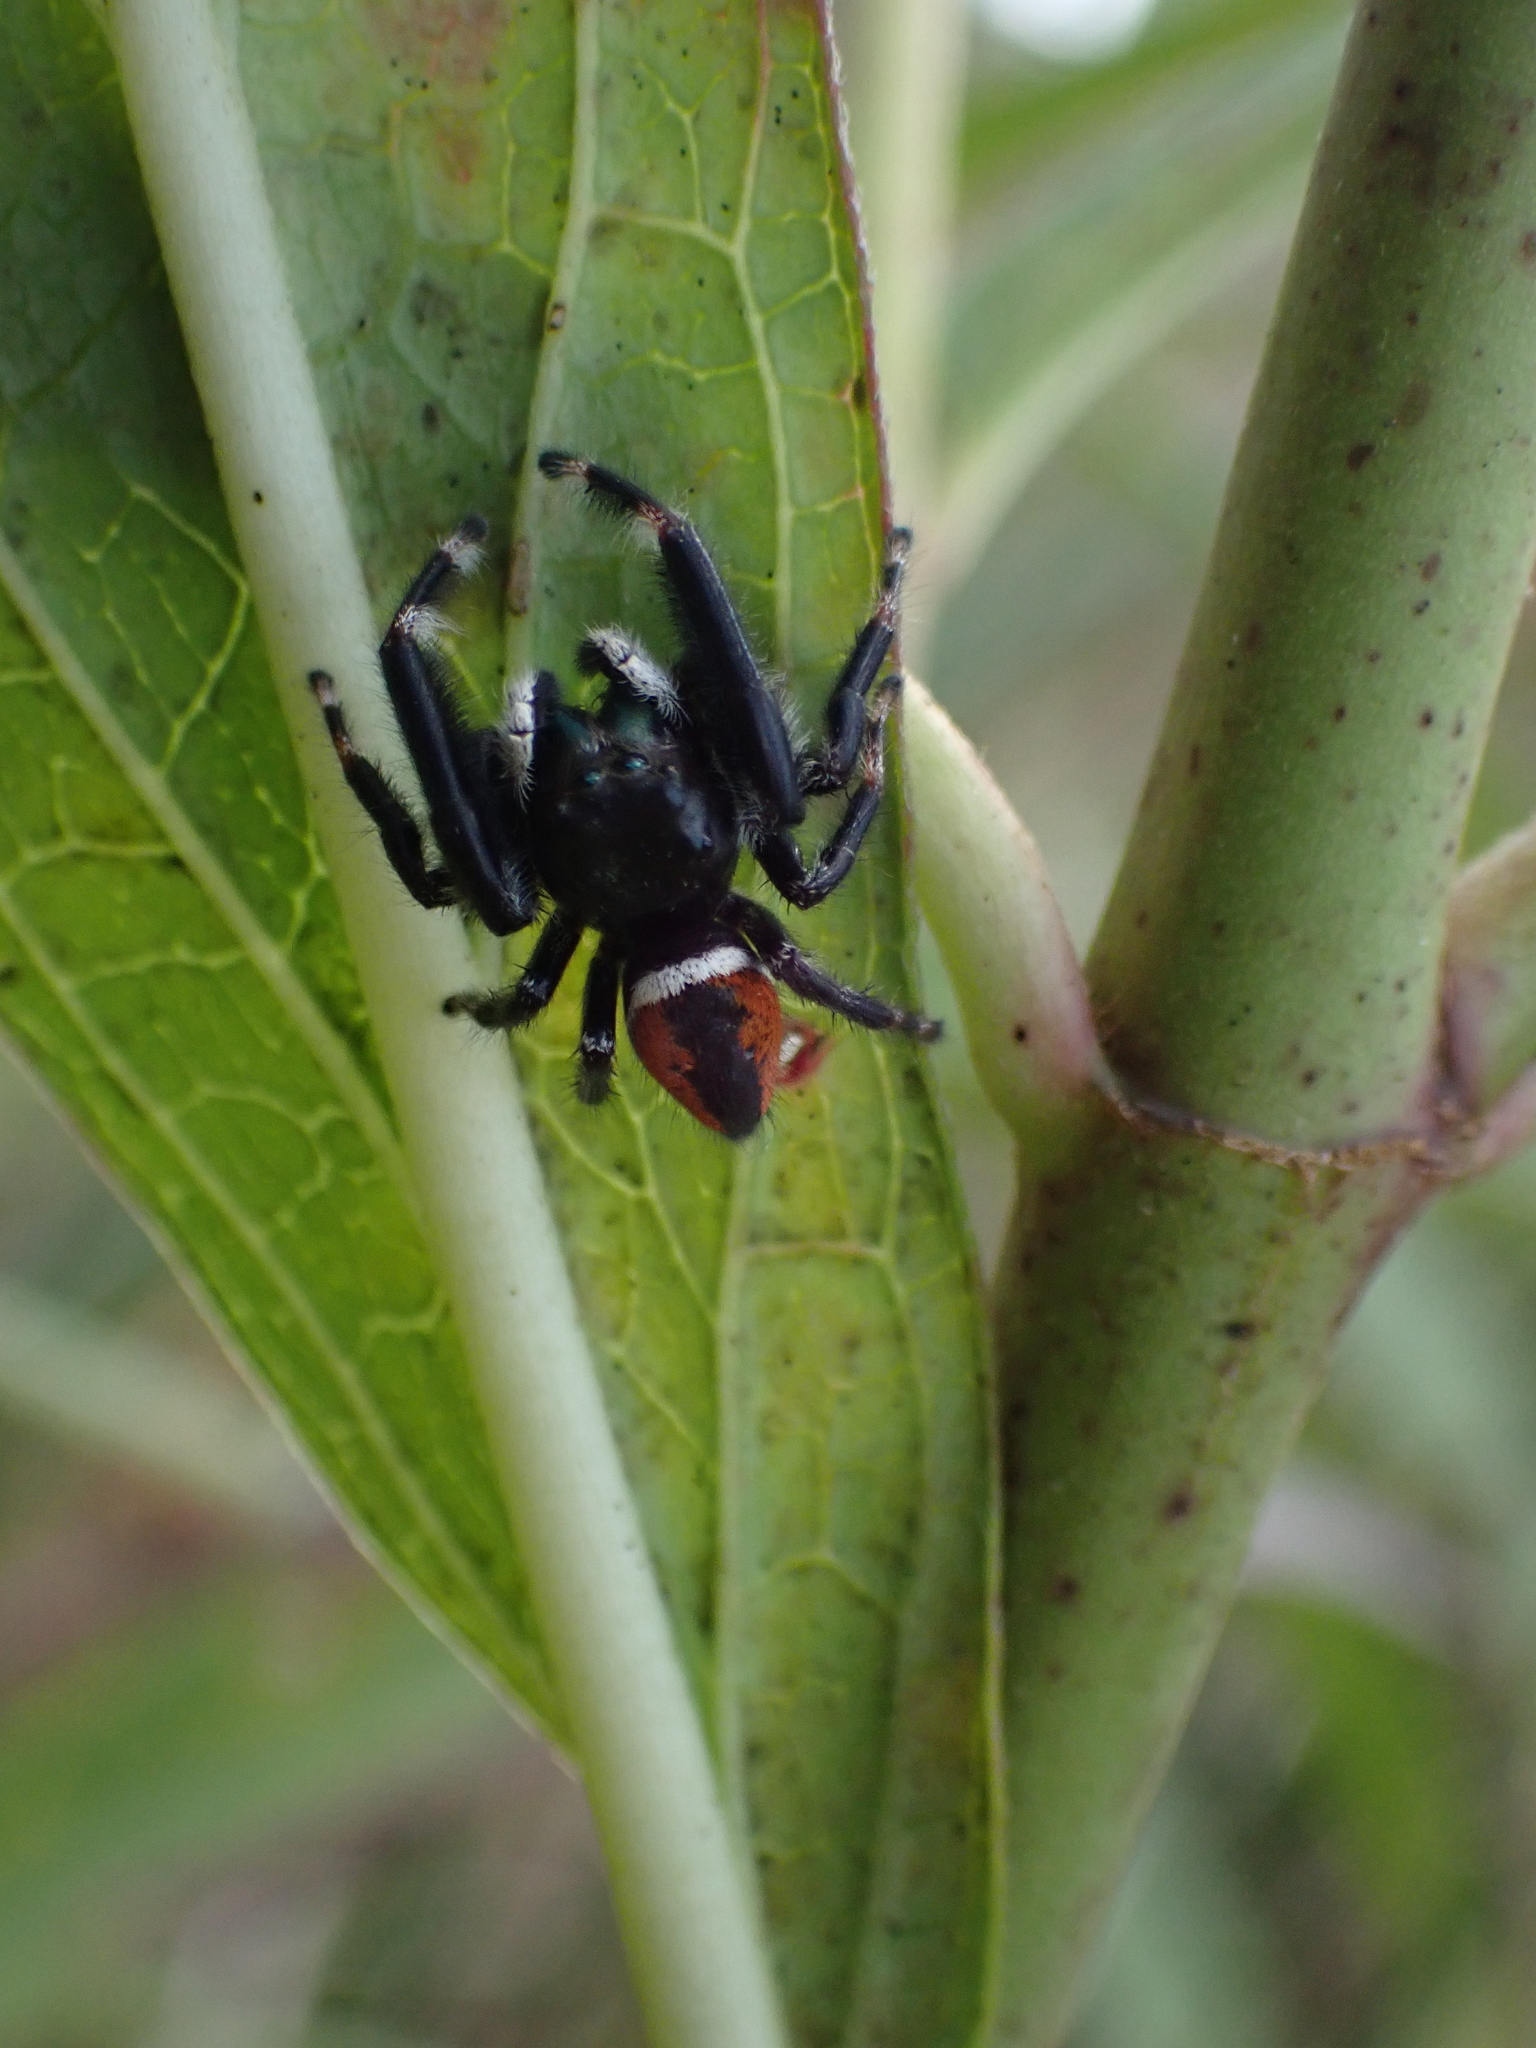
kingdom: Animalia
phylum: Arthropoda
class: Arachnida
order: Araneae
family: Salticidae
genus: Phidippus
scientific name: Phidippus clarus
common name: Brilliant jumping spider
